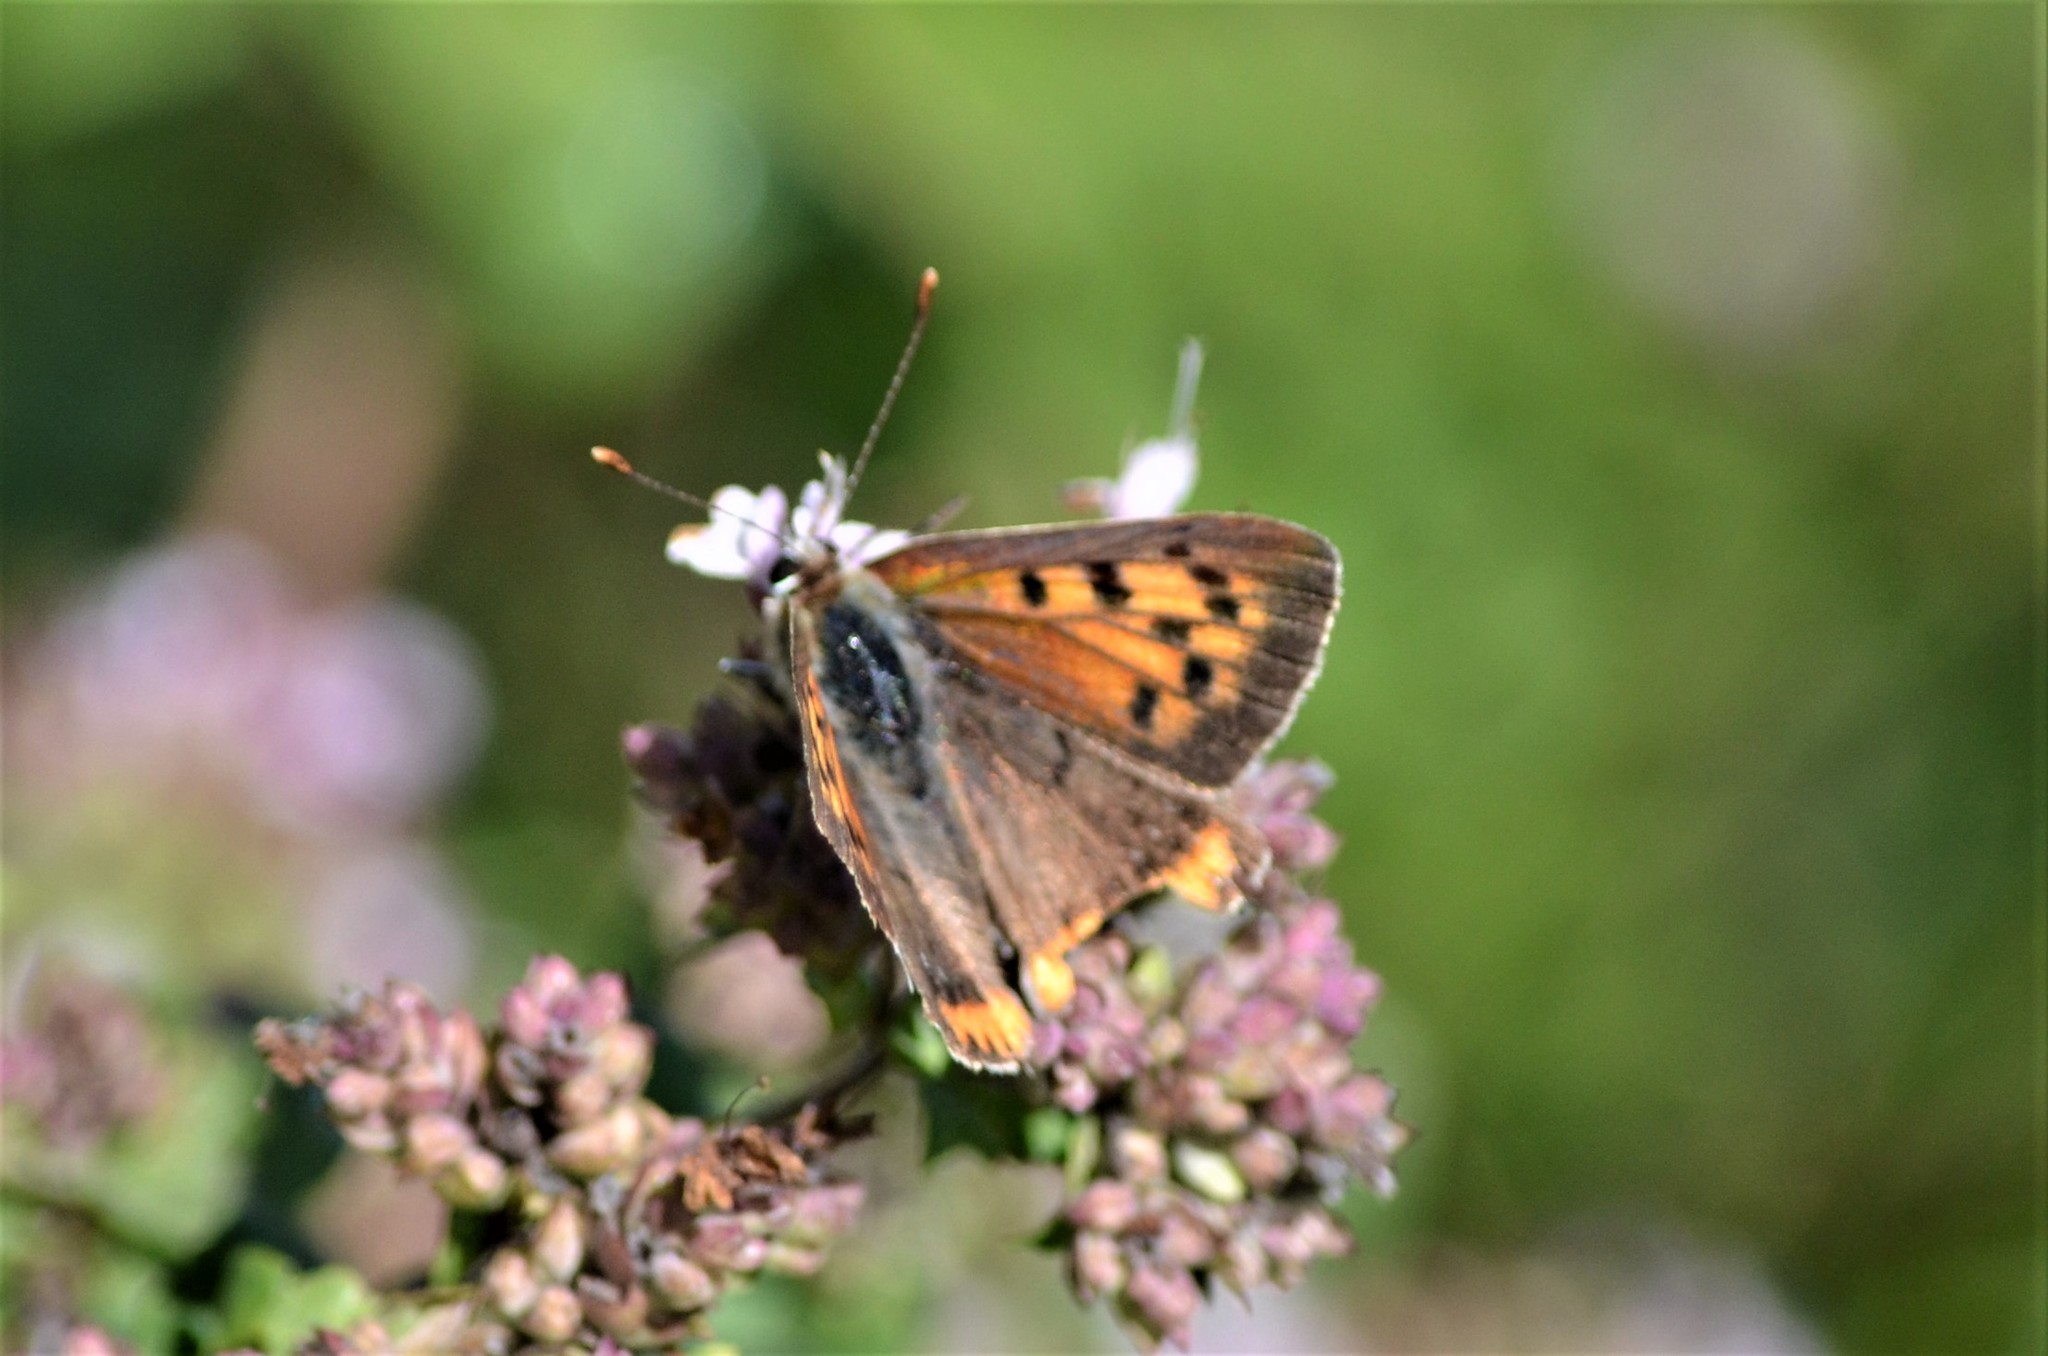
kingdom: Animalia
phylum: Arthropoda
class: Insecta
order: Lepidoptera
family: Lycaenidae
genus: Lycaena
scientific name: Lycaena phlaeas
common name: Small copper
